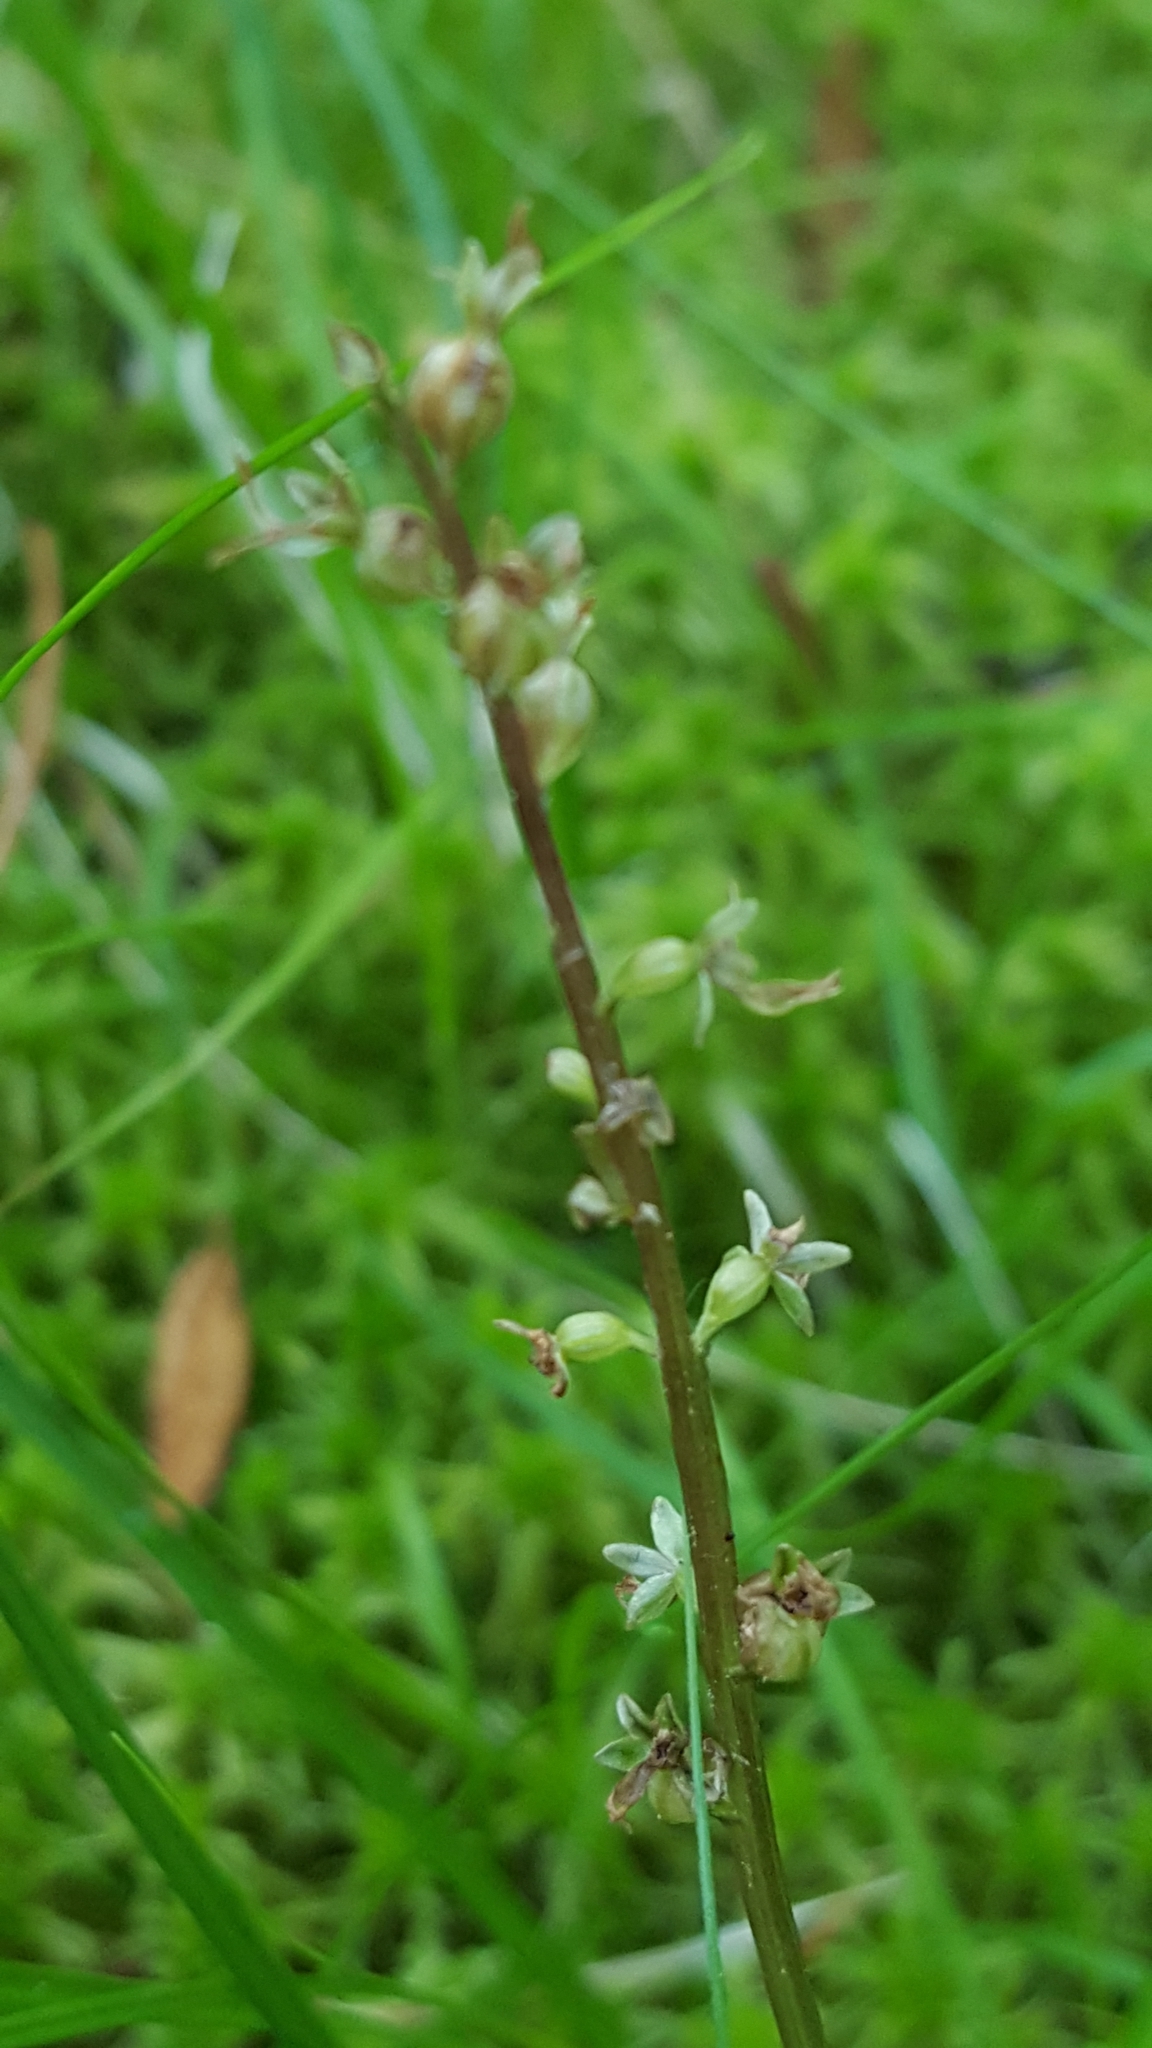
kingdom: Plantae
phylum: Tracheophyta
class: Liliopsida
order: Asparagales
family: Orchidaceae
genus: Neottia
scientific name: Neottia cordata
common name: Lesser twayblade
